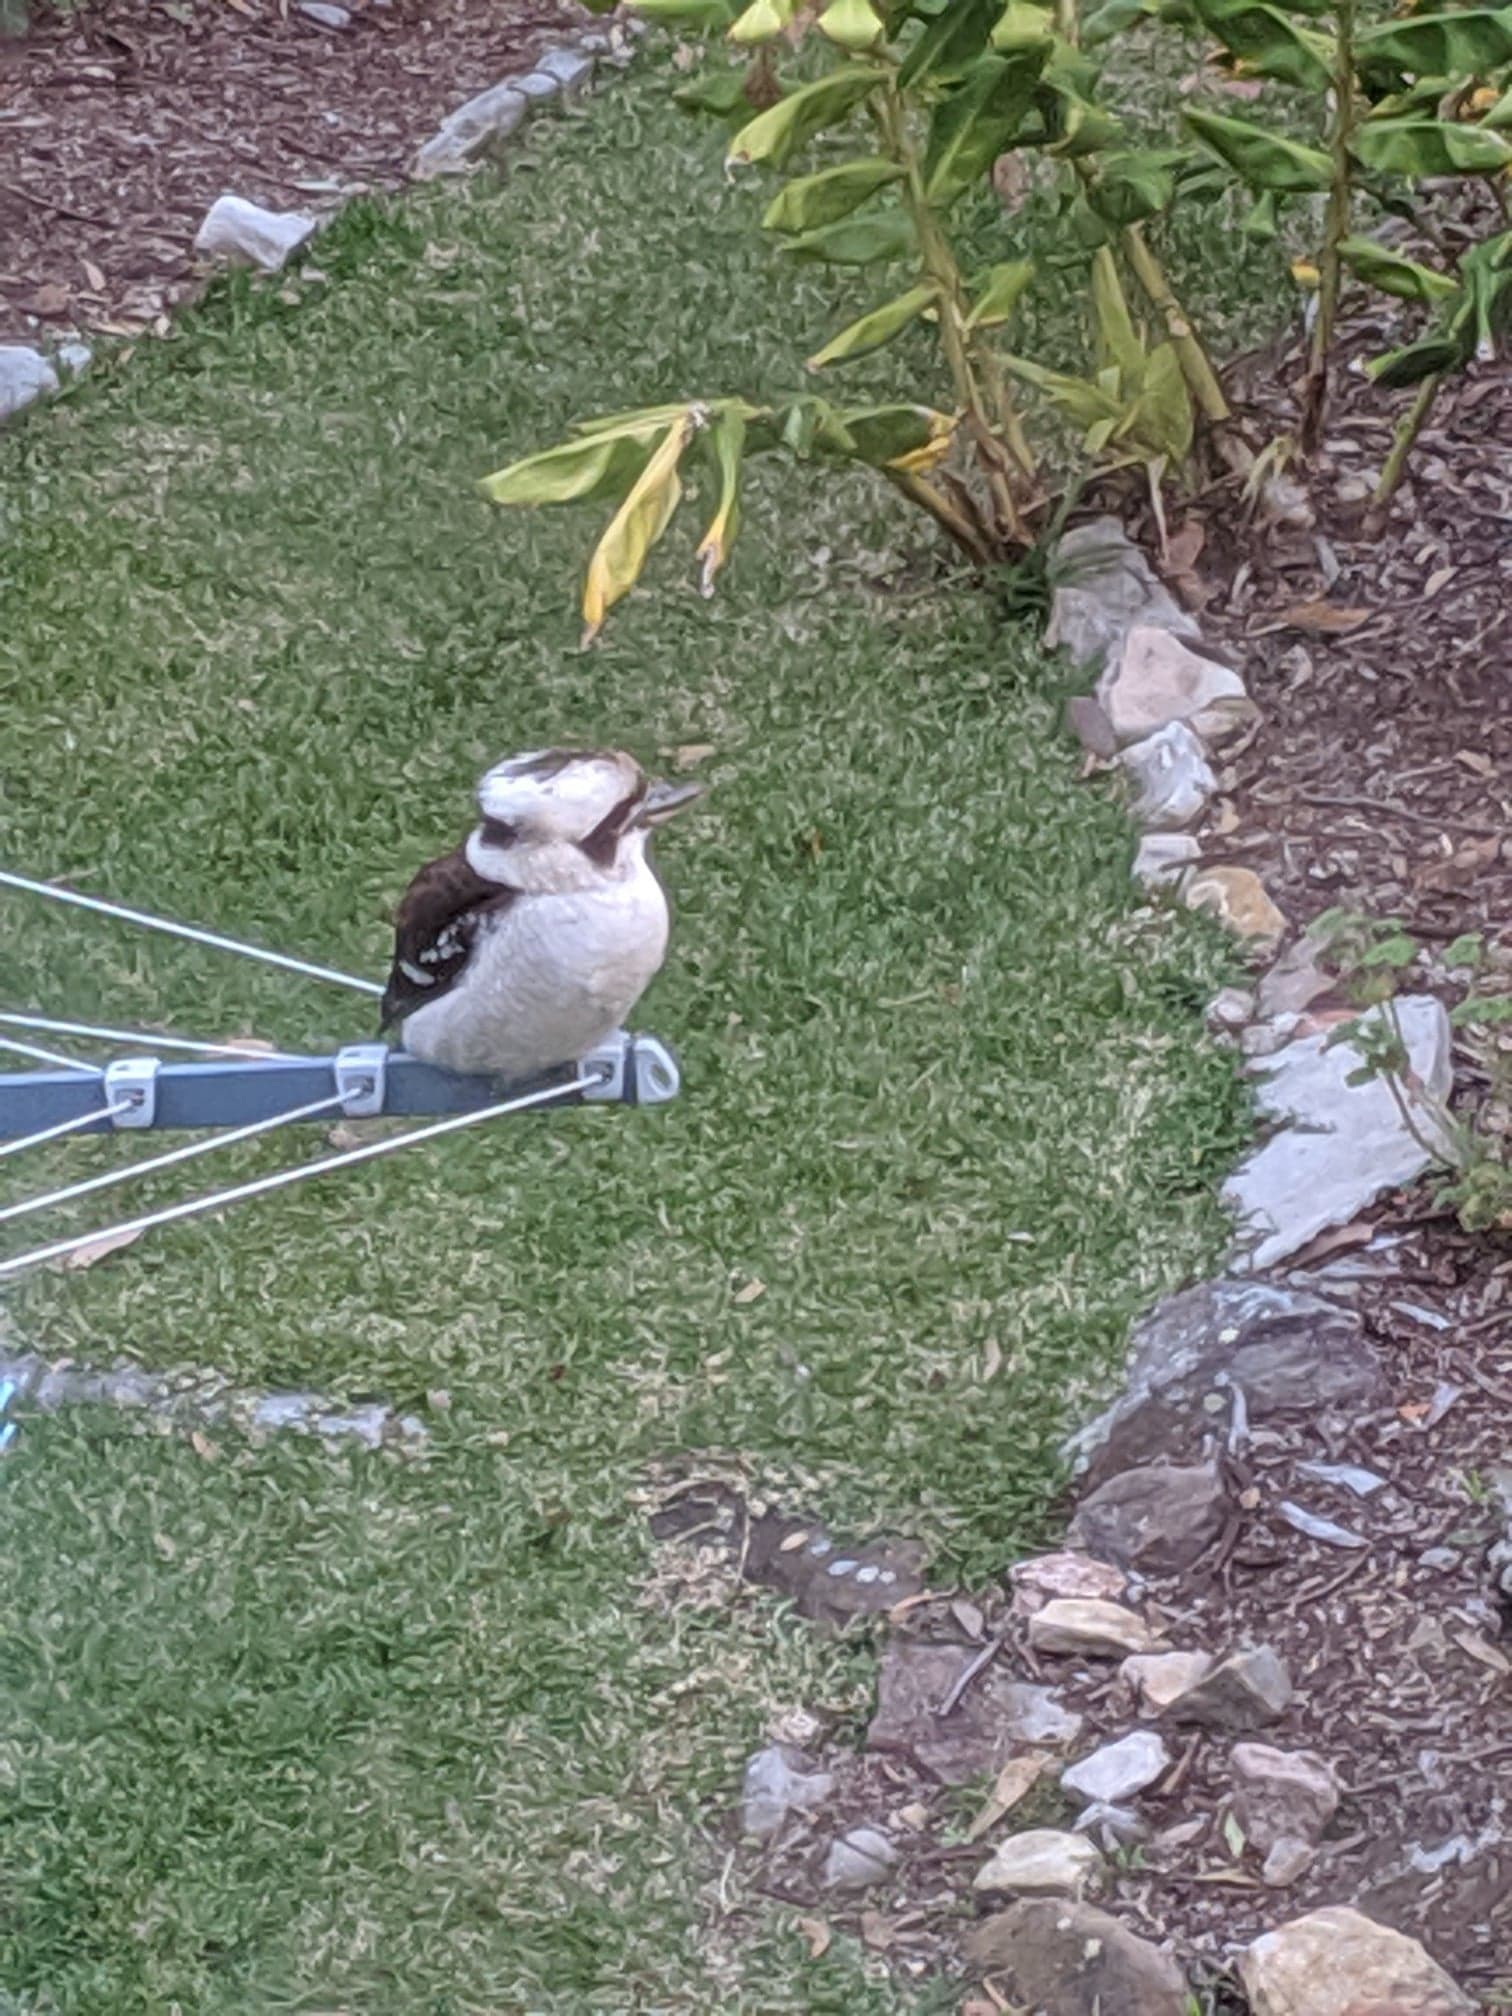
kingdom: Animalia
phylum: Chordata
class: Aves
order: Coraciiformes
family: Alcedinidae
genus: Dacelo
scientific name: Dacelo novaeguineae
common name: Laughing kookaburra
